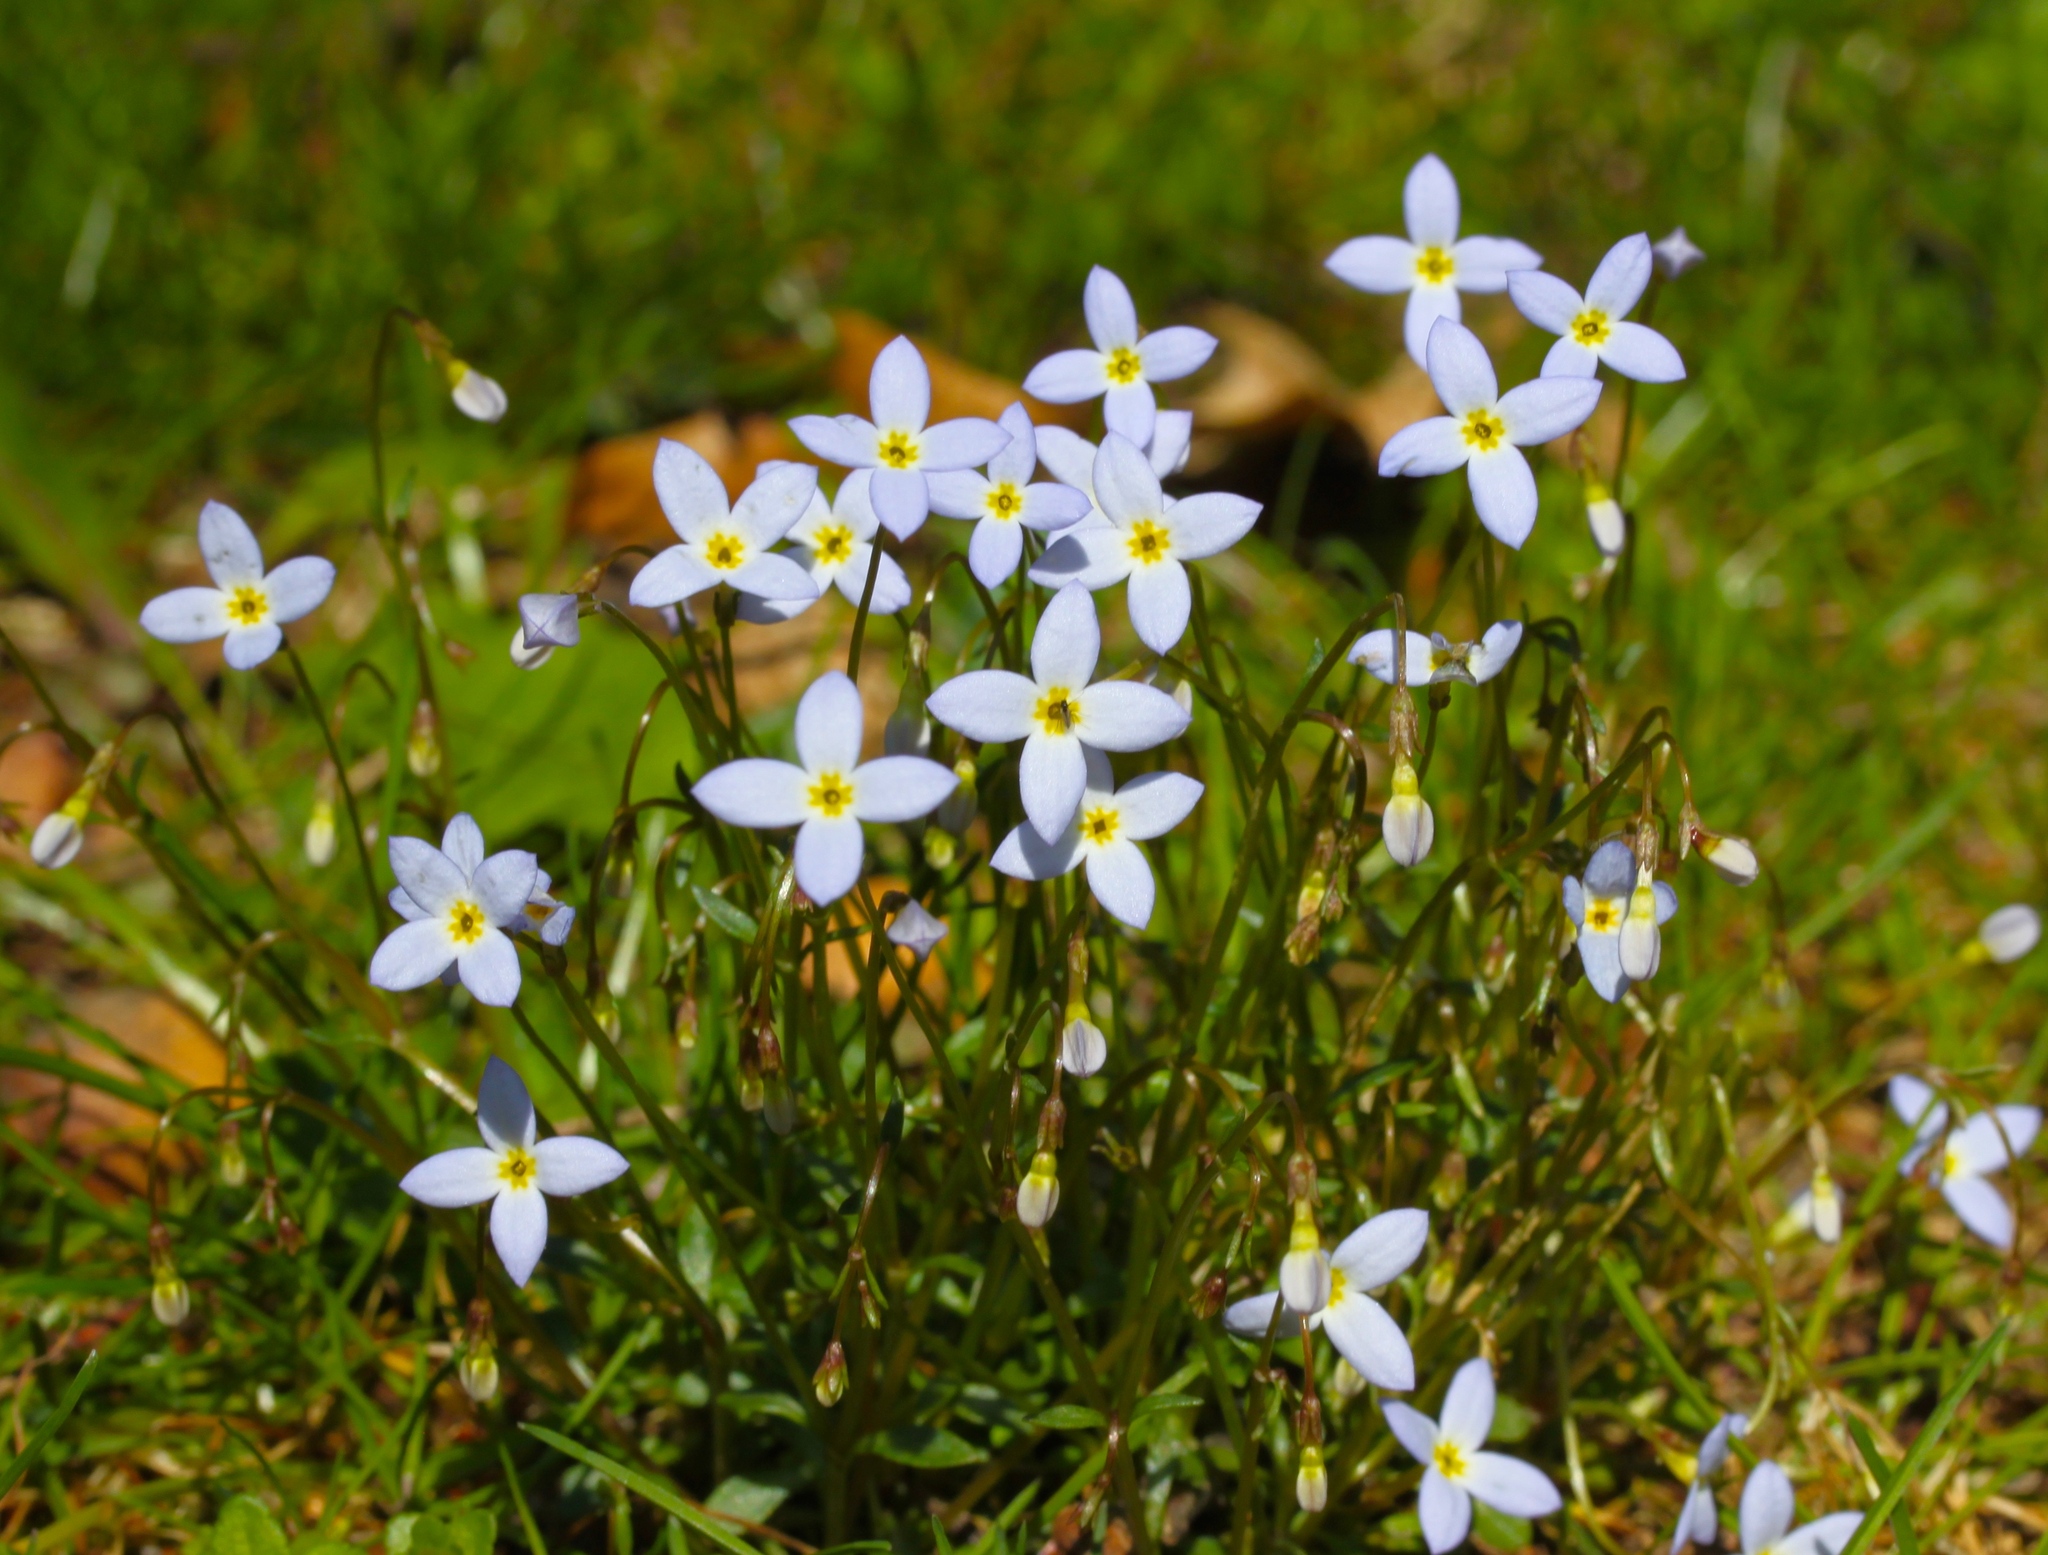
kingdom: Plantae
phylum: Tracheophyta
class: Magnoliopsida
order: Gentianales
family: Rubiaceae
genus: Houstonia
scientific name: Houstonia caerulea
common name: Bluets
